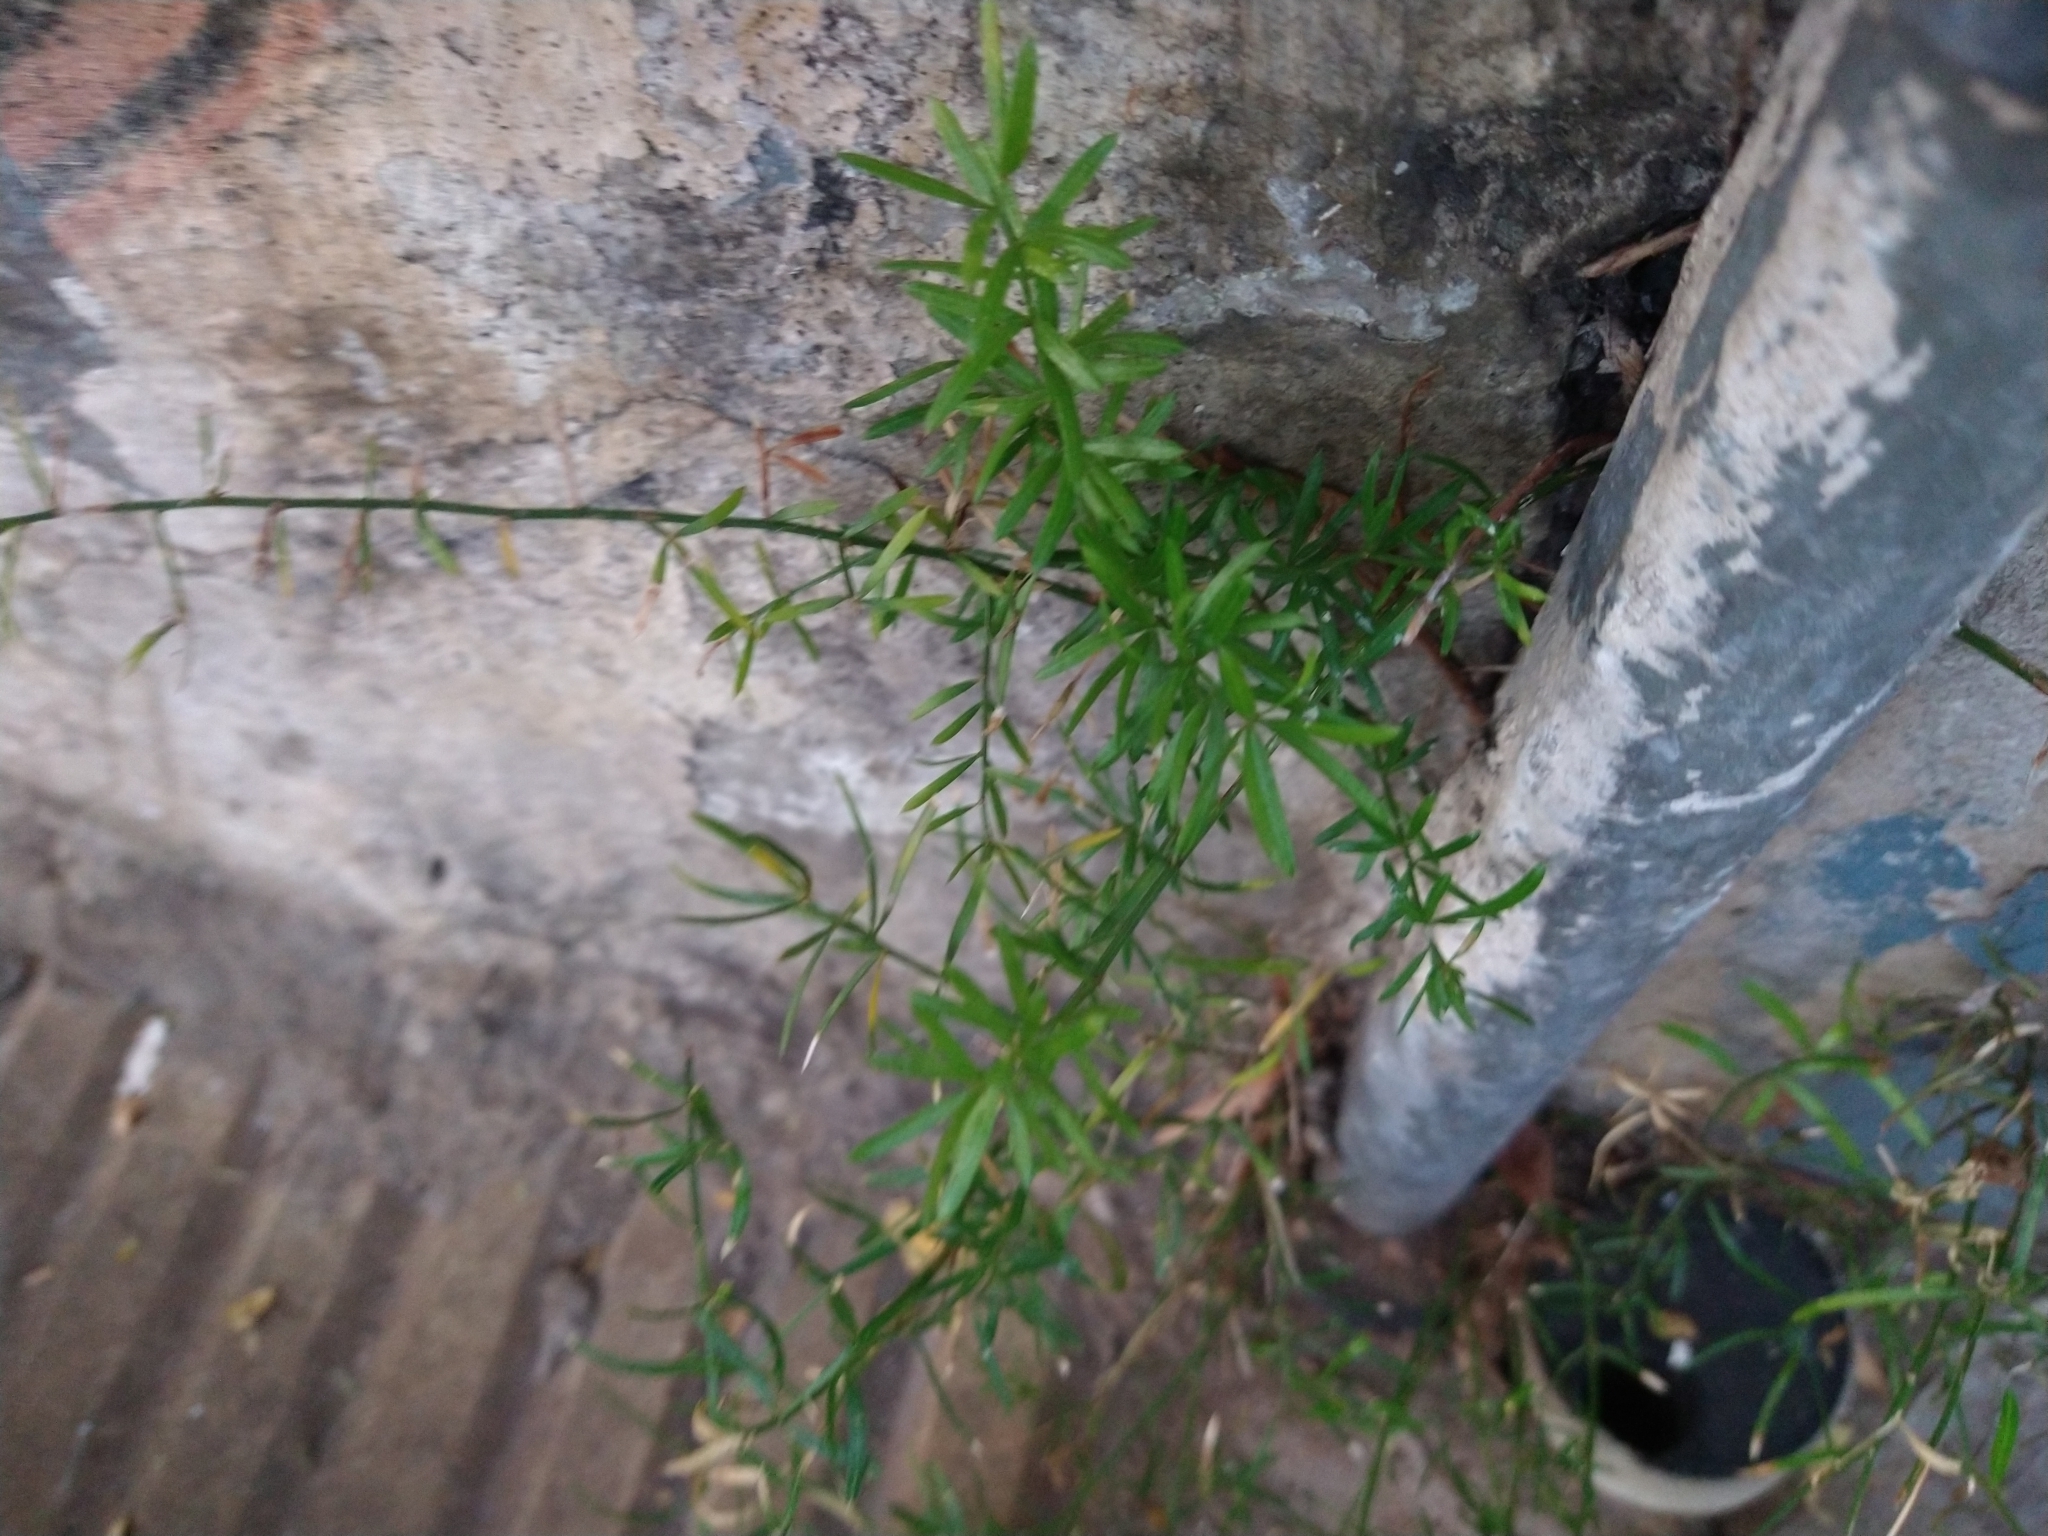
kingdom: Plantae
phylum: Tracheophyta
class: Liliopsida
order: Asparagales
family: Asparagaceae
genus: Asparagus
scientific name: Asparagus aethiopicus
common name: Sprenger's asparagus fern
